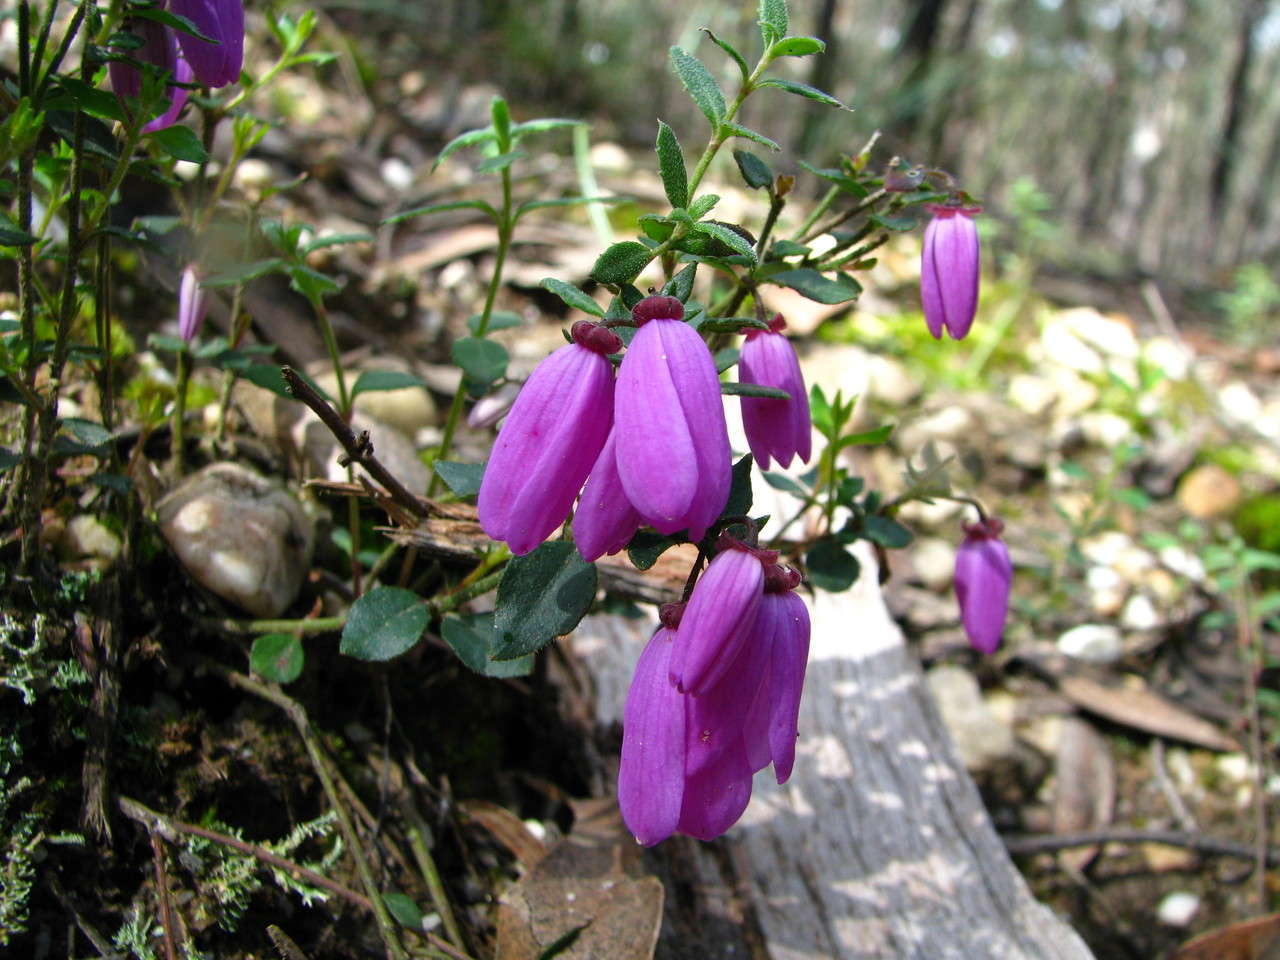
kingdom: Plantae
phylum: Tracheophyta
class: Magnoliopsida
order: Oxalidales
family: Elaeocarpaceae
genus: Tetratheca
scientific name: Tetratheca ciliata
